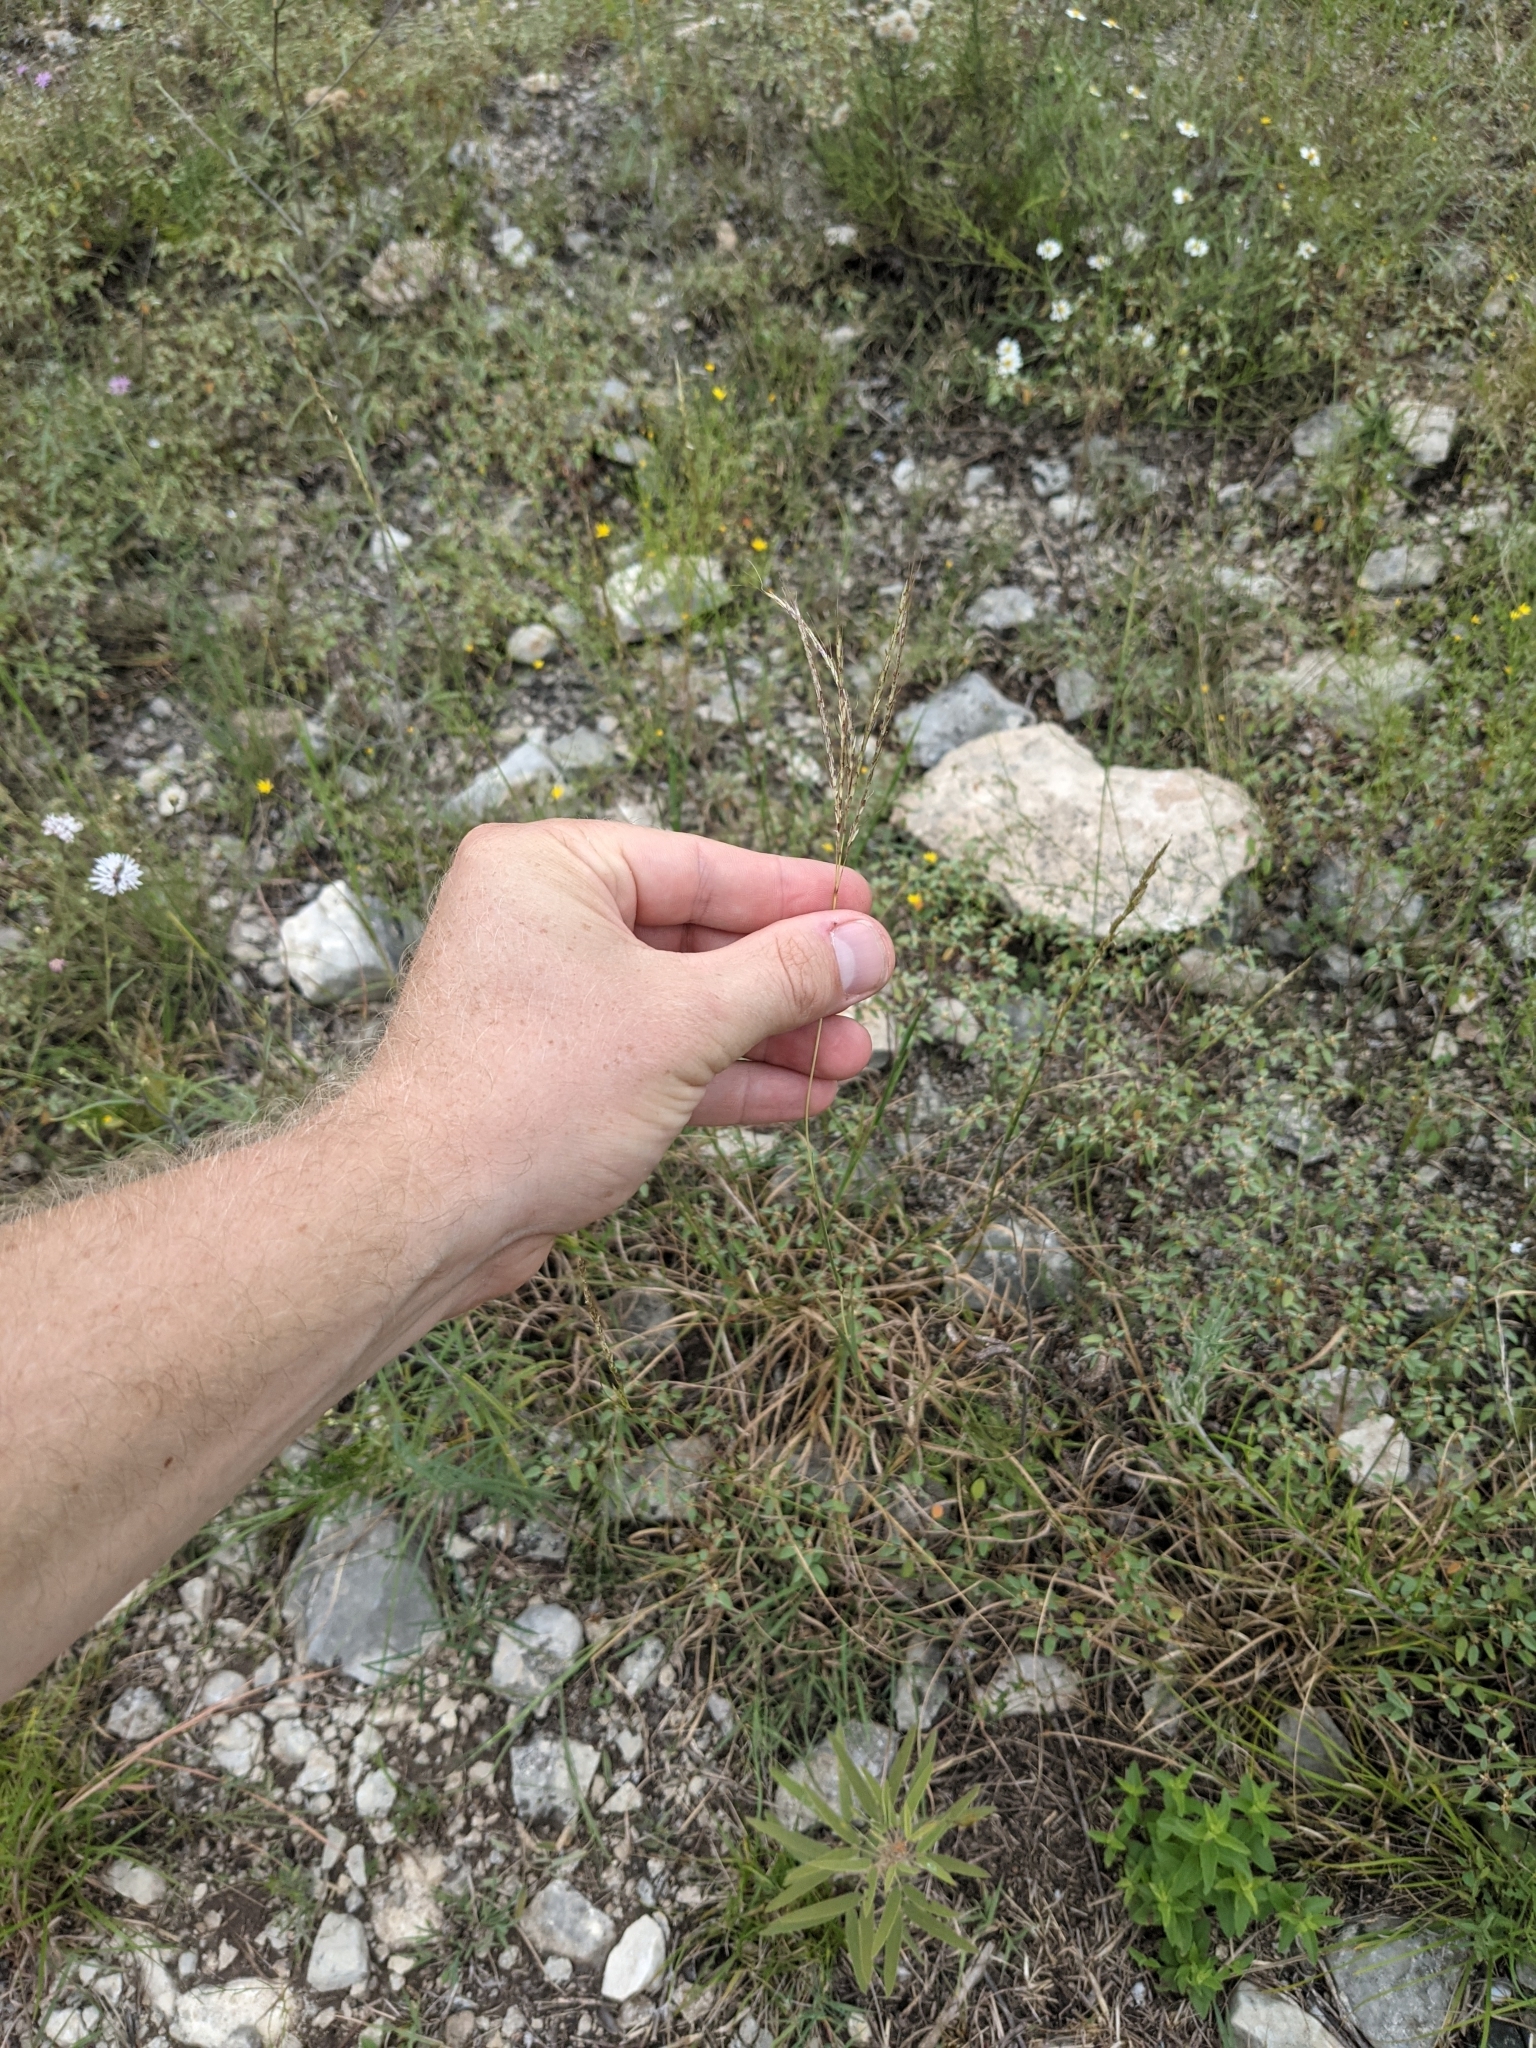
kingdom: Plantae
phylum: Tracheophyta
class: Liliopsida
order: Poales
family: Poaceae
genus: Bothriochloa
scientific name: Bothriochloa ischaemum
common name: Yellow bluestem
